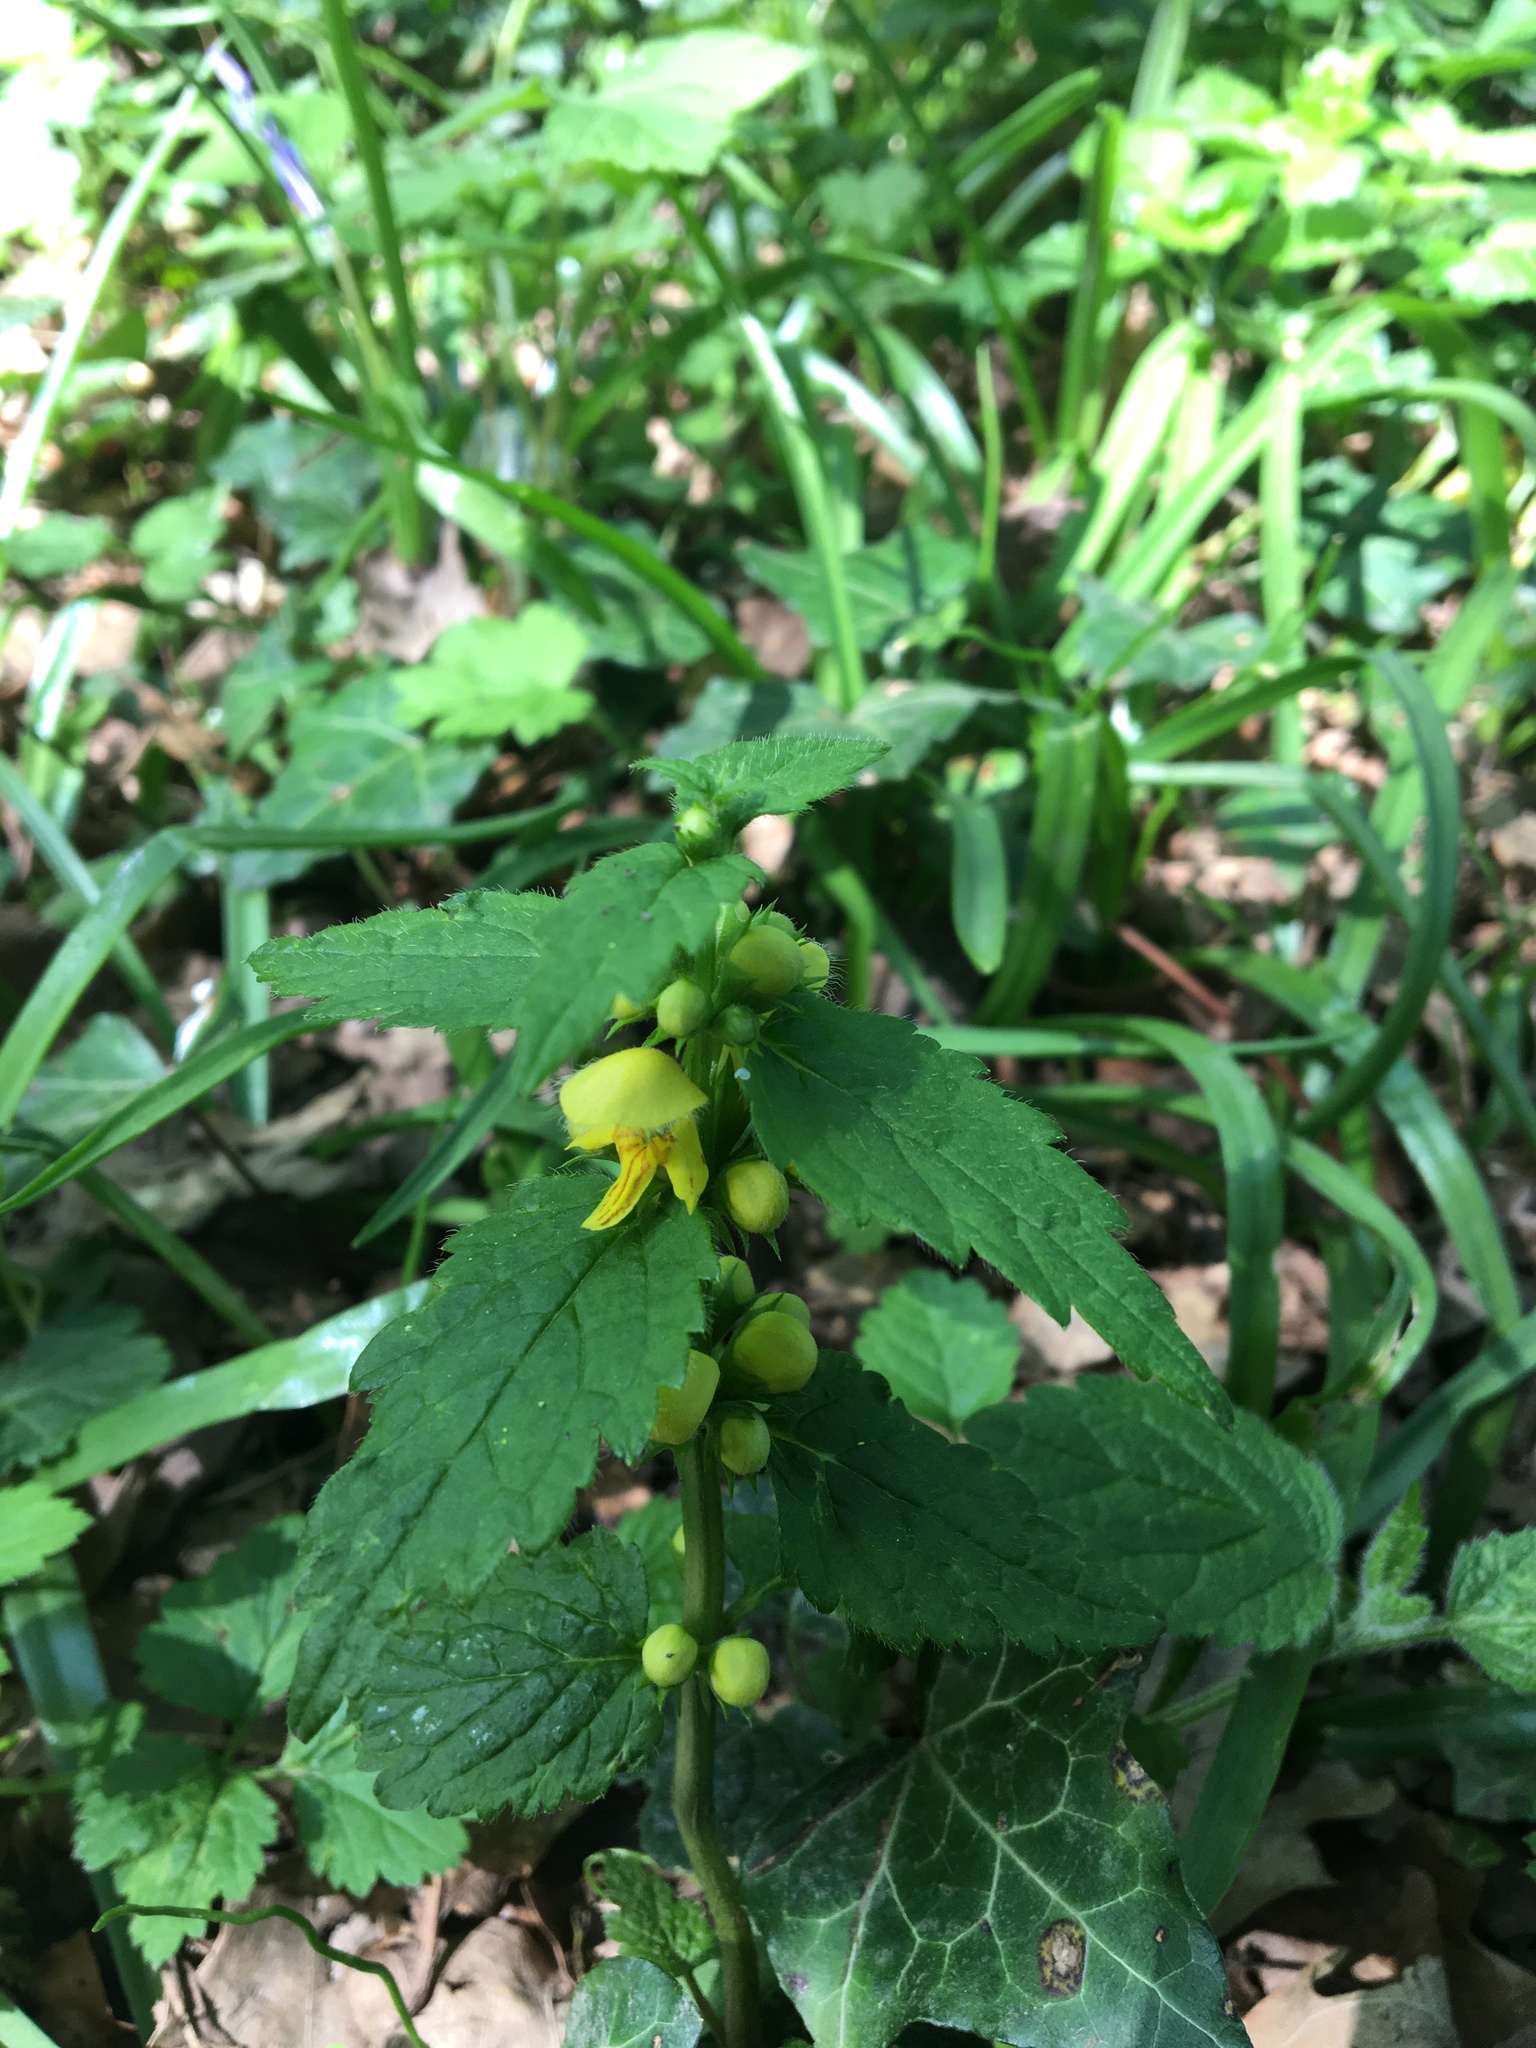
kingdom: Plantae
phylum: Tracheophyta
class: Magnoliopsida
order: Lamiales
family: Lamiaceae
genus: Lamium
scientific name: Lamium galeobdolon
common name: Yellow archangel
